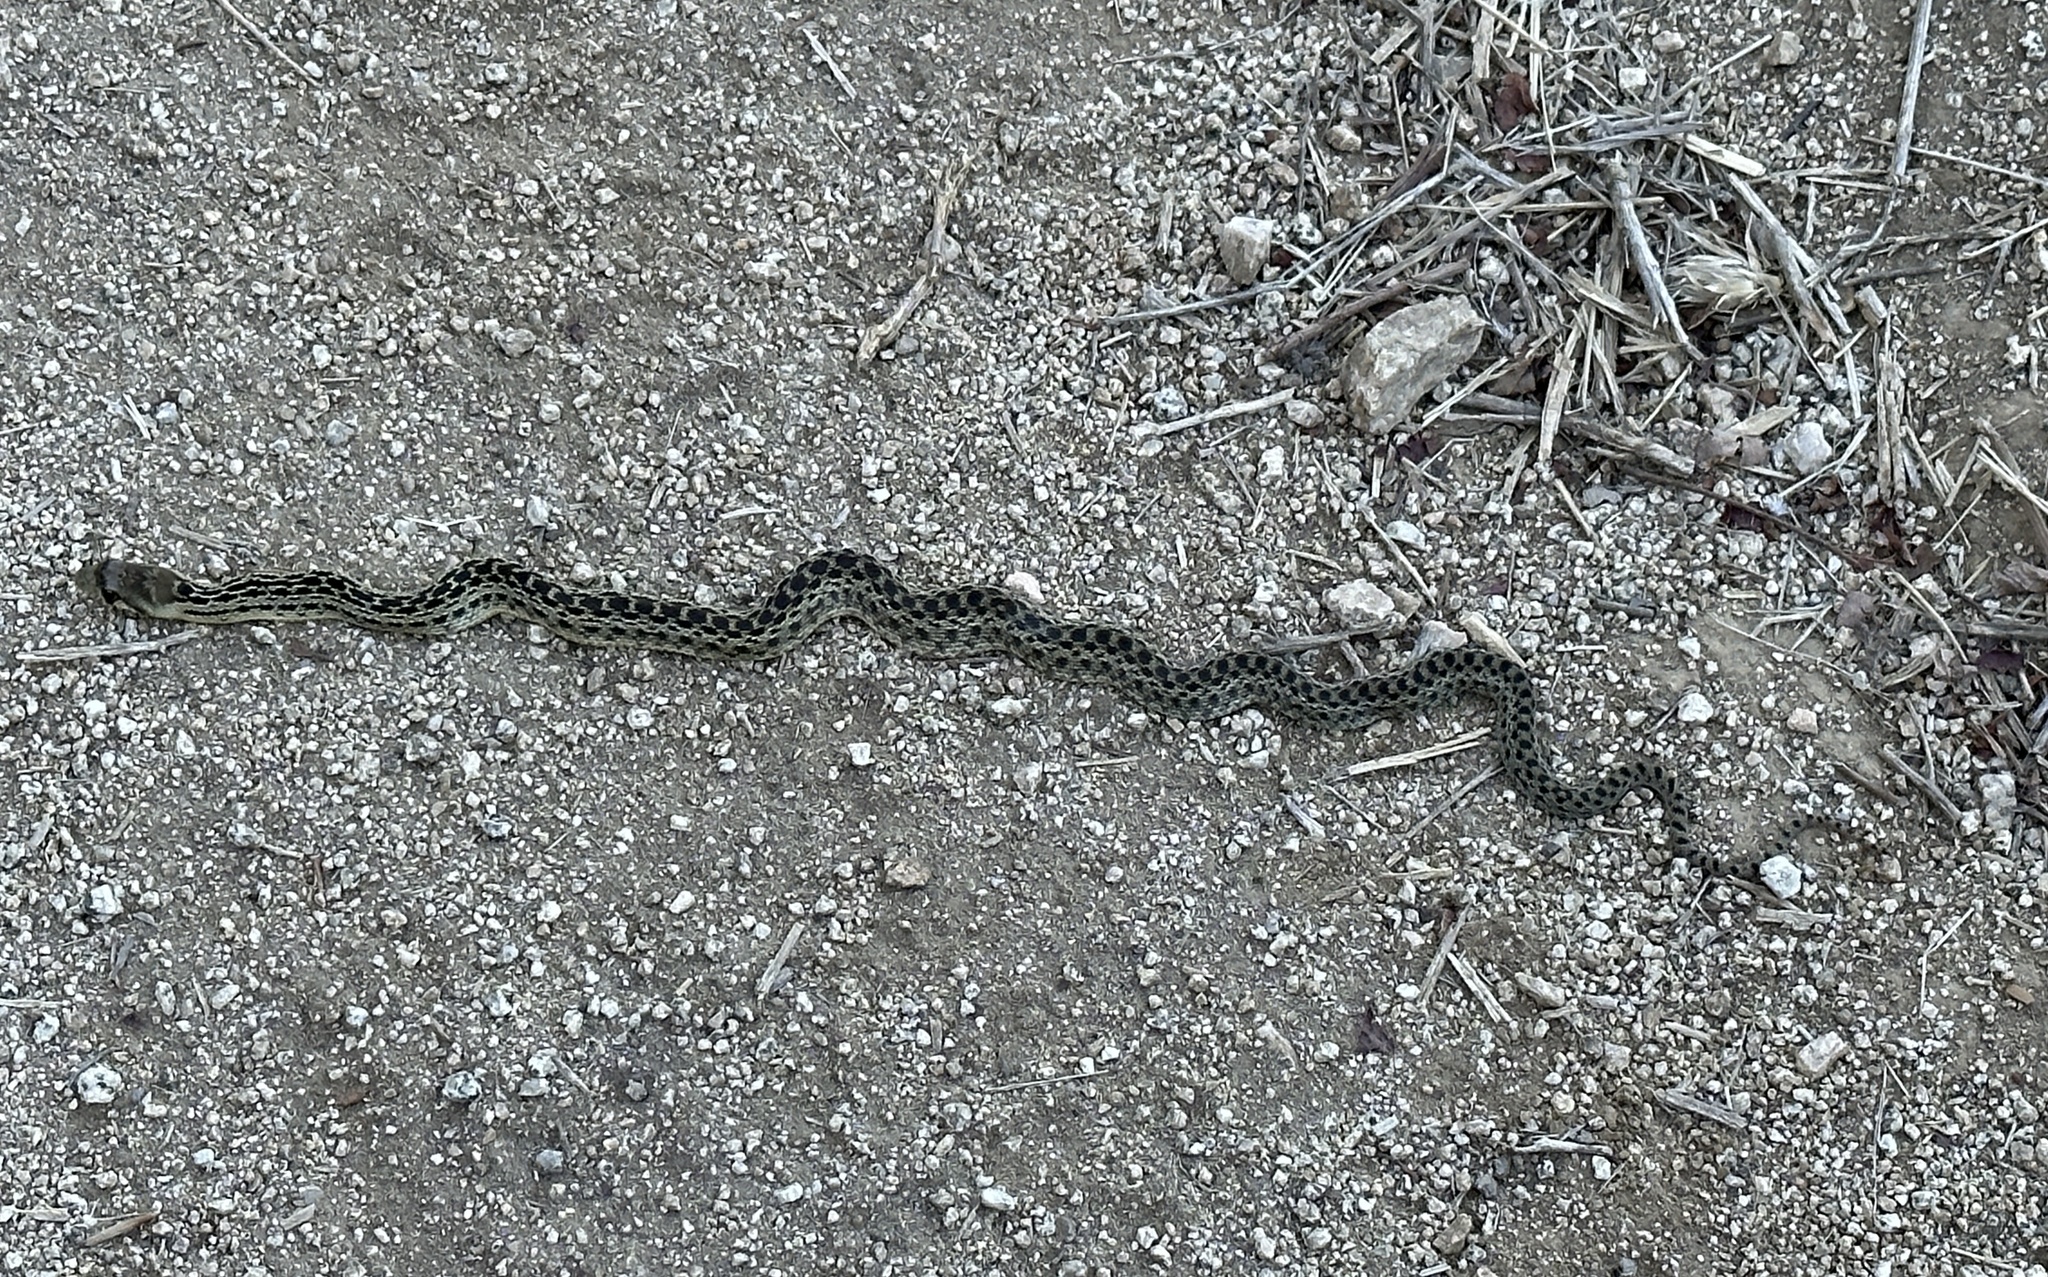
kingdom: Animalia
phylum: Chordata
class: Squamata
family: Colubridae
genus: Pituophis
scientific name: Pituophis catenifer
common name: Gopher snake
